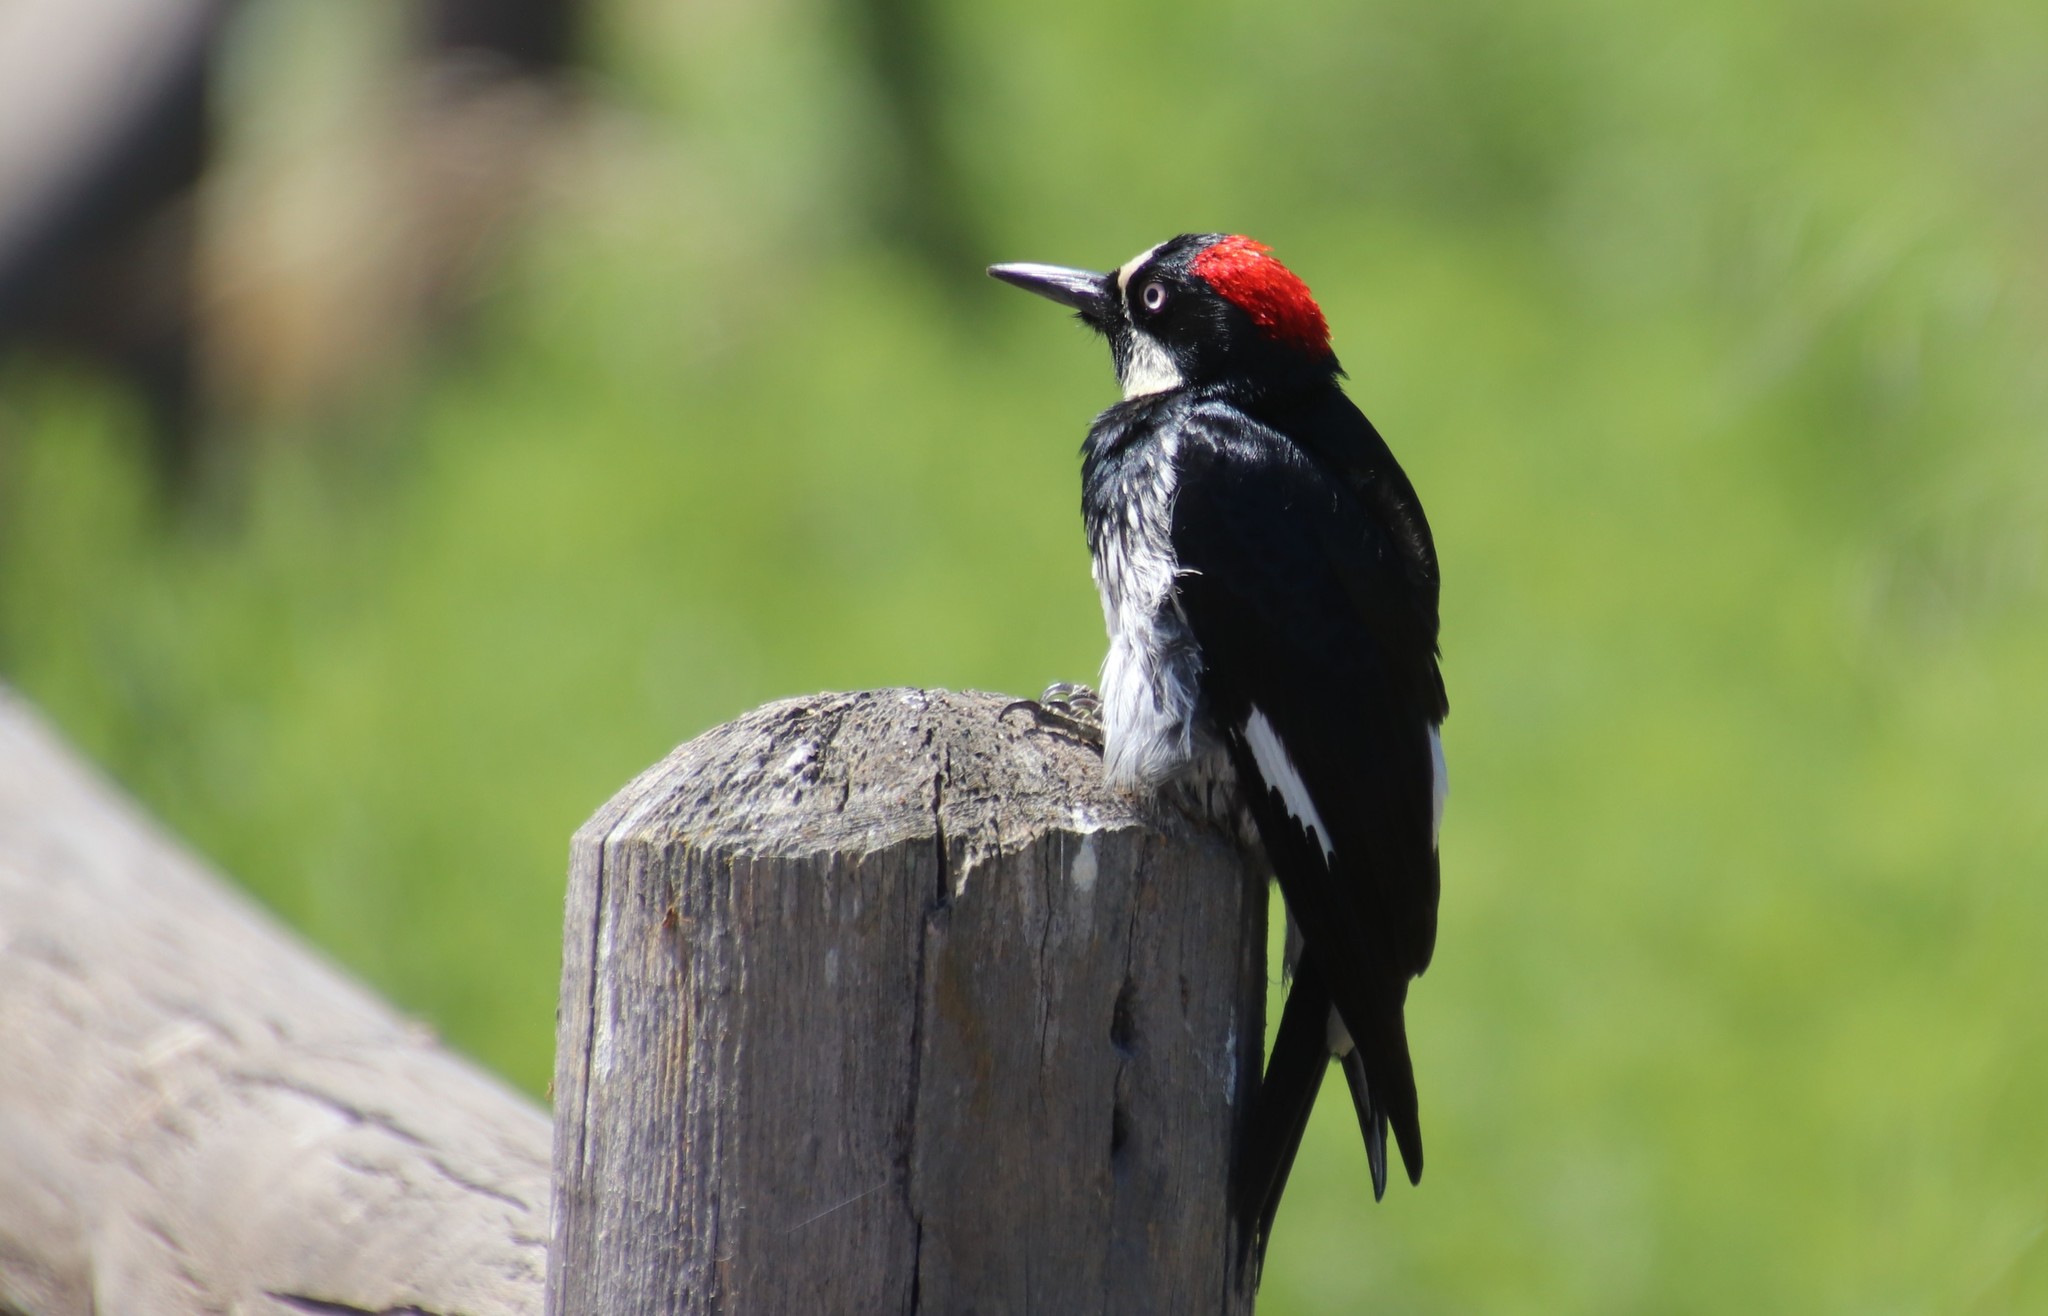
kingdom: Animalia
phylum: Chordata
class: Aves
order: Piciformes
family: Picidae
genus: Melanerpes
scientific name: Melanerpes formicivorus
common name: Acorn woodpecker
